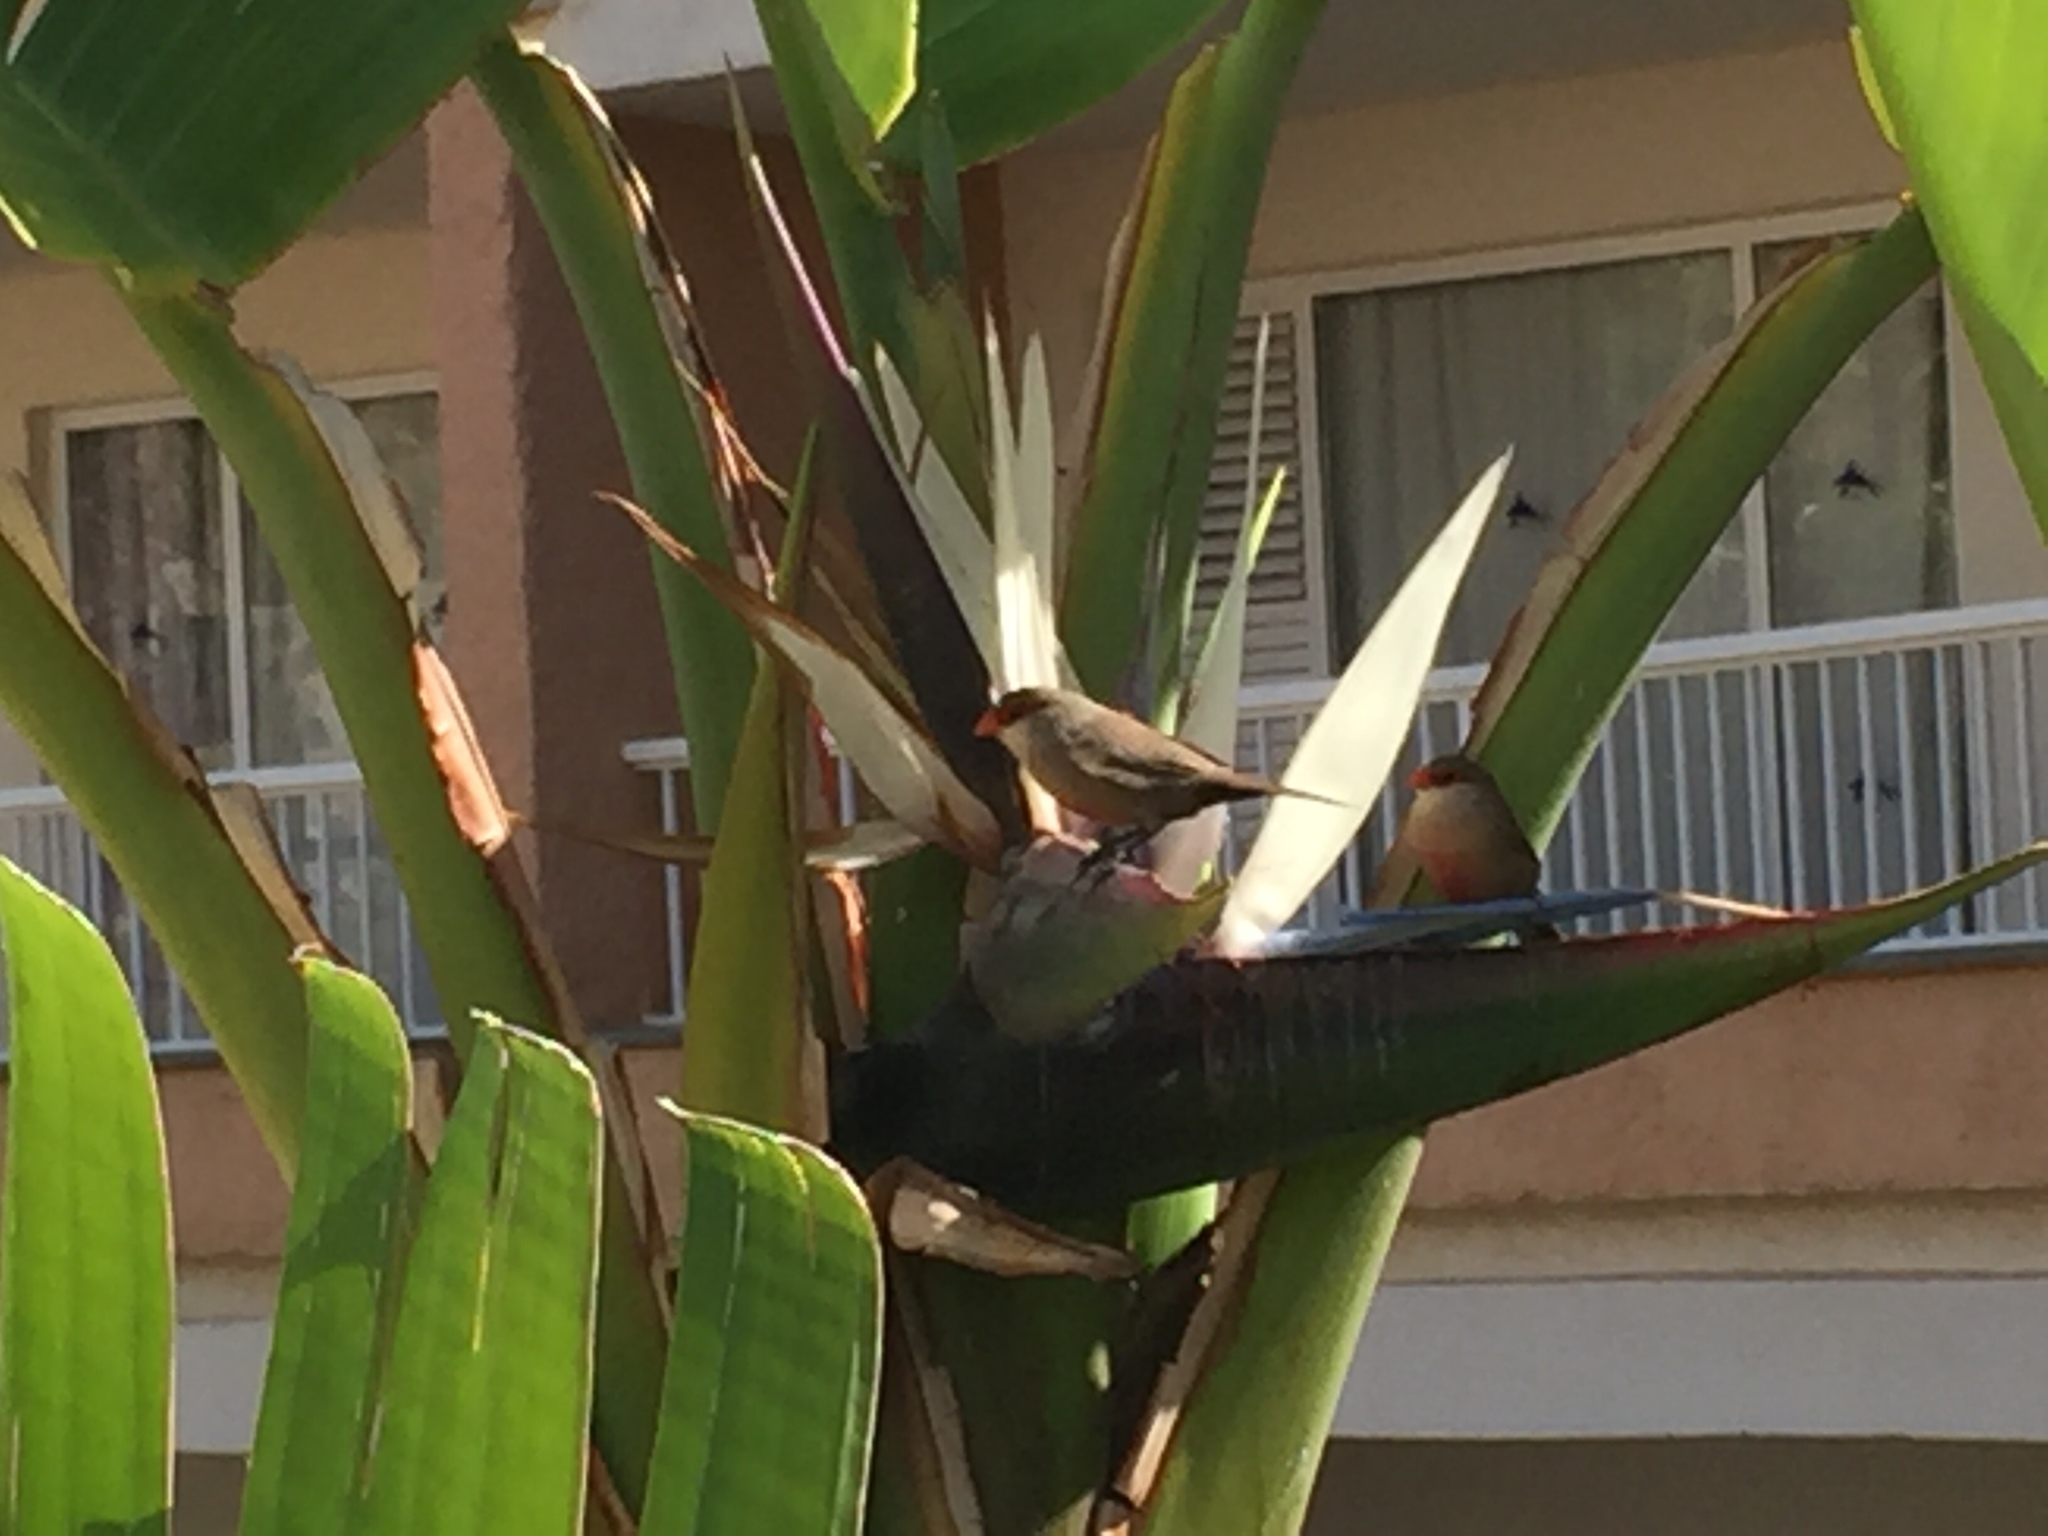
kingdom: Animalia
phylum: Chordata
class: Aves
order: Passeriformes
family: Estrildidae
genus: Estrilda
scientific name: Estrilda astrild
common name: Common waxbill
